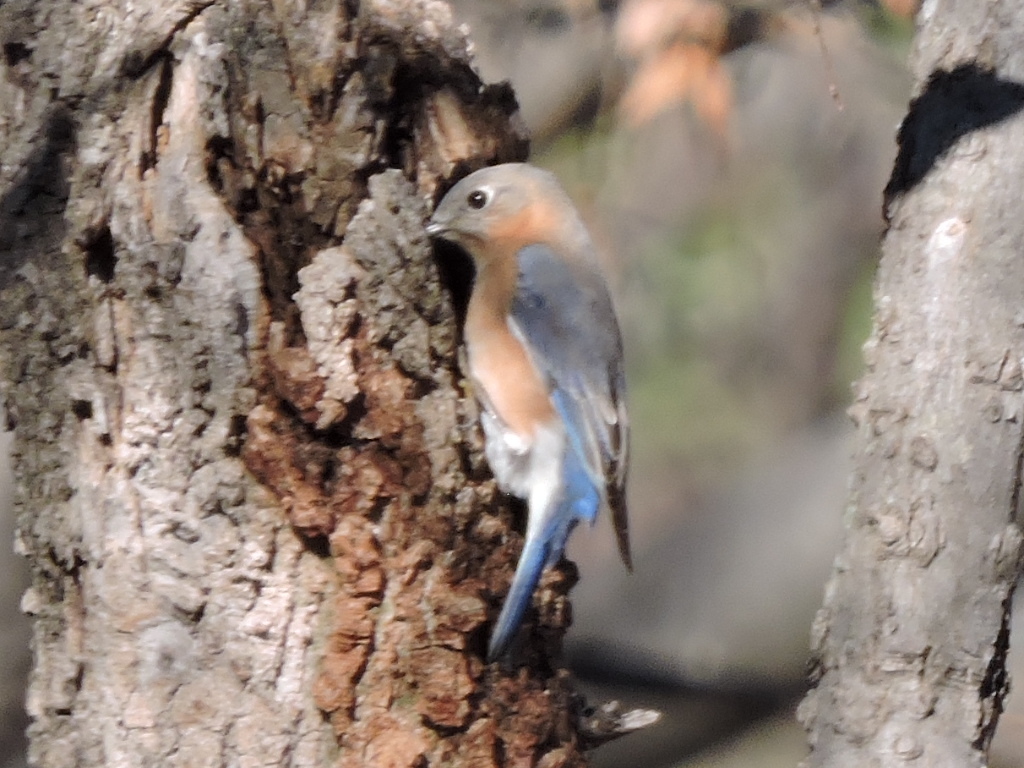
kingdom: Animalia
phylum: Chordata
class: Aves
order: Passeriformes
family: Turdidae
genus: Sialia
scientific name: Sialia sialis
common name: Eastern bluebird
